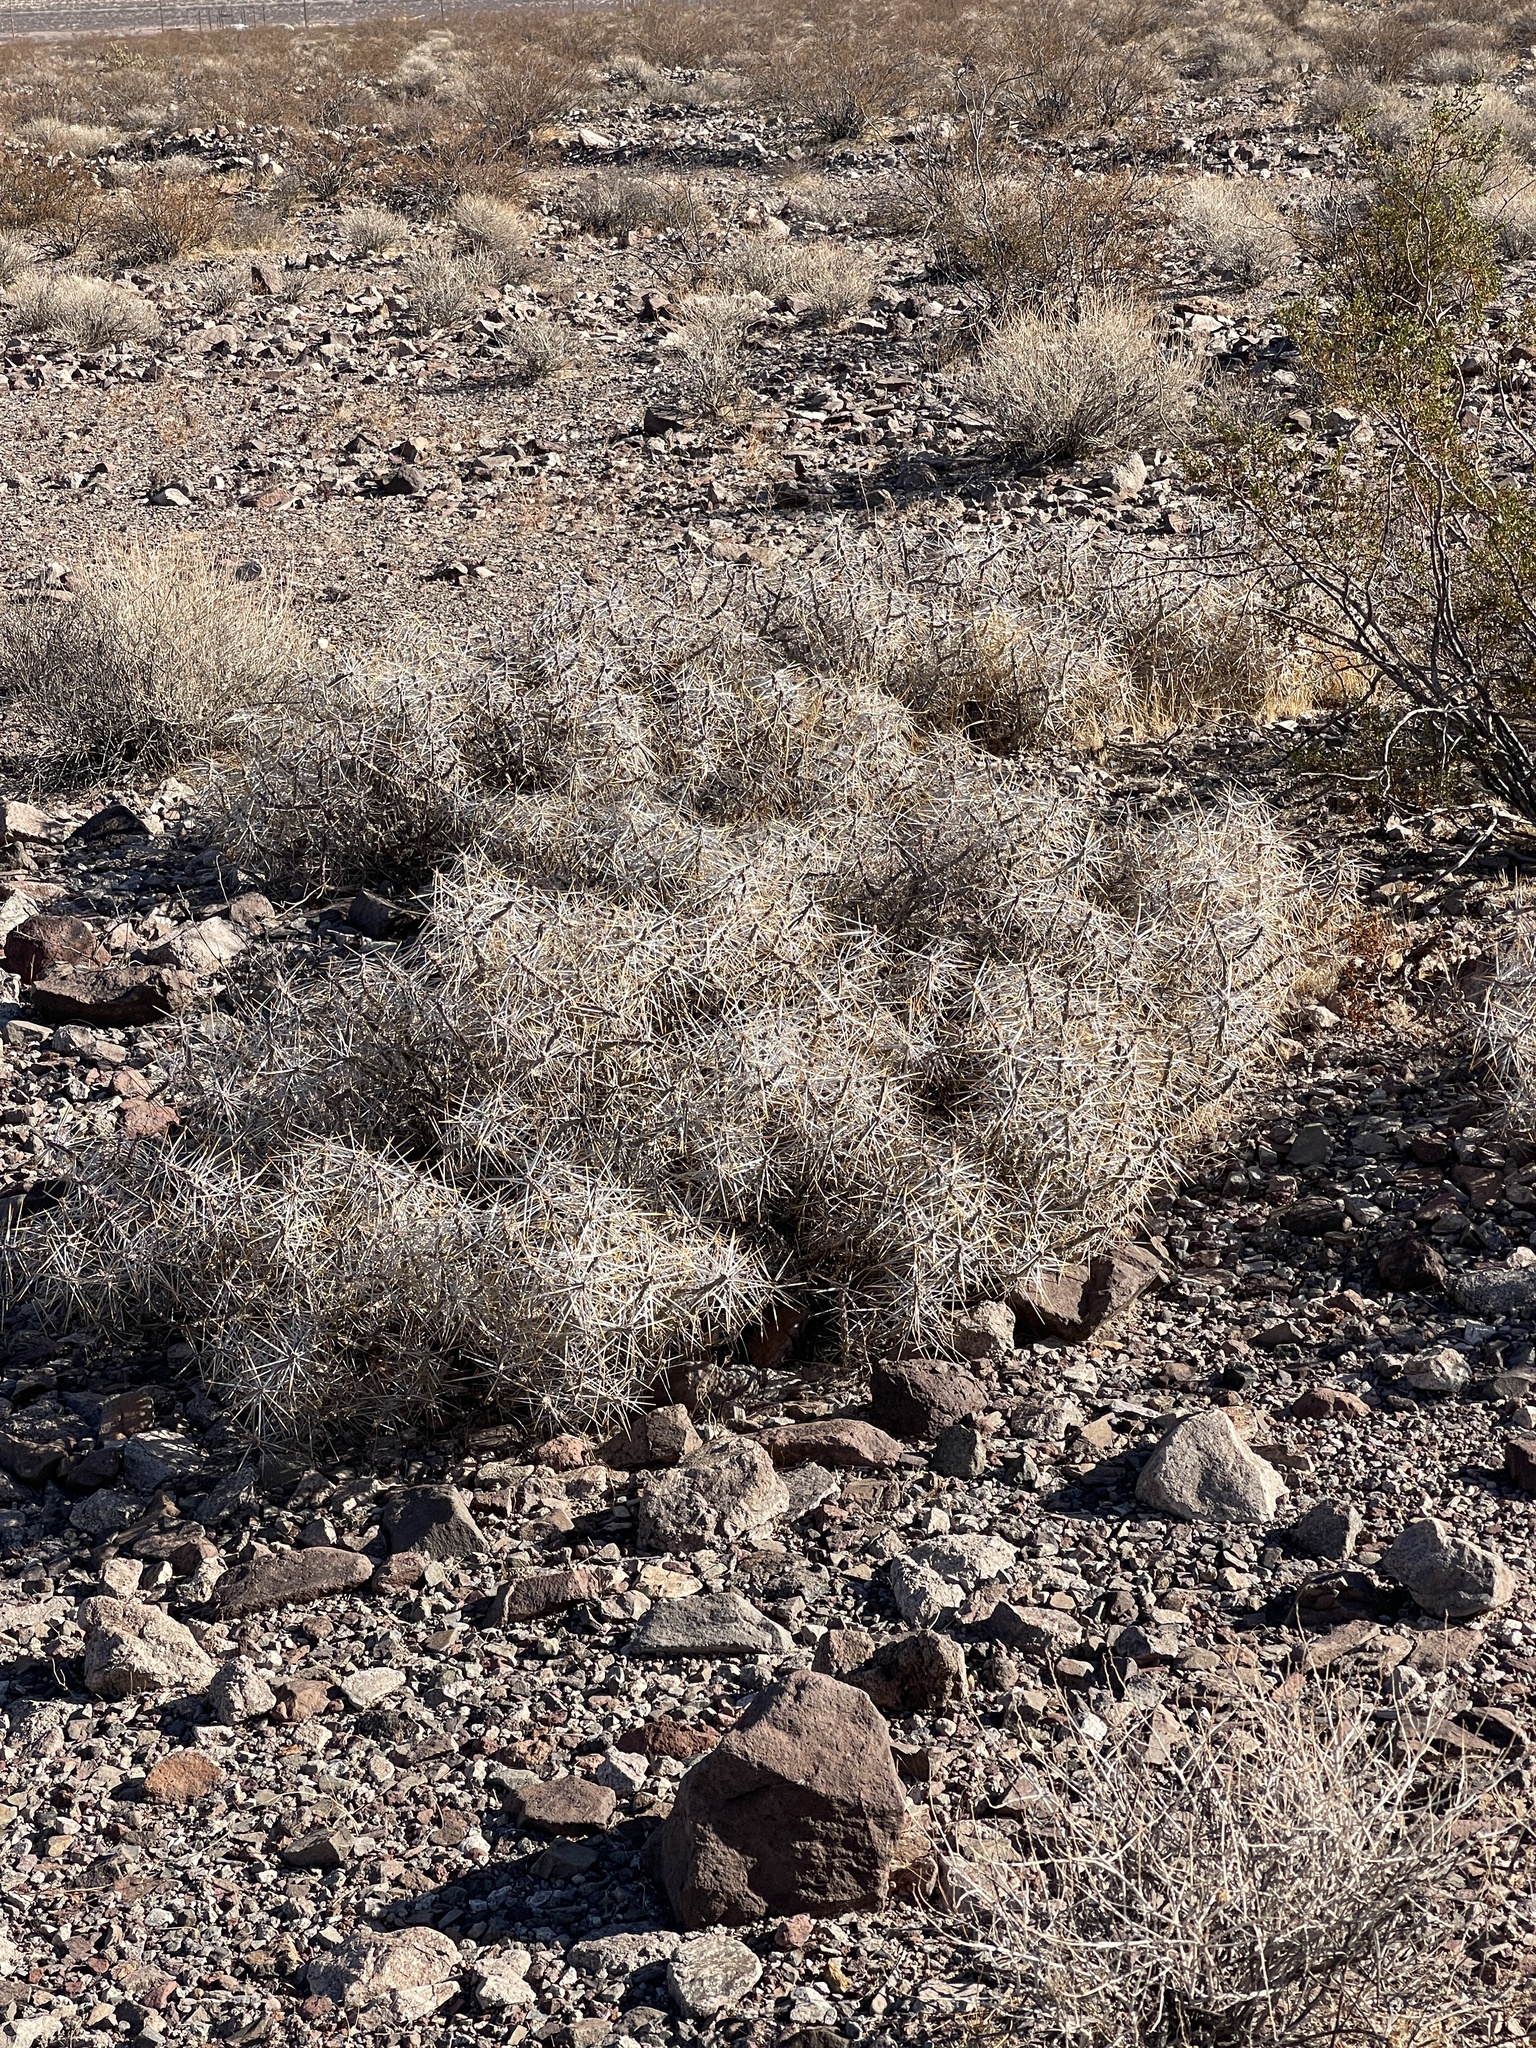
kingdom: Plantae
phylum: Tracheophyta
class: Magnoliopsida
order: Caryophyllales
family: Cactaceae
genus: Cylindropuntia
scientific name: Cylindropuntia ramosissima
